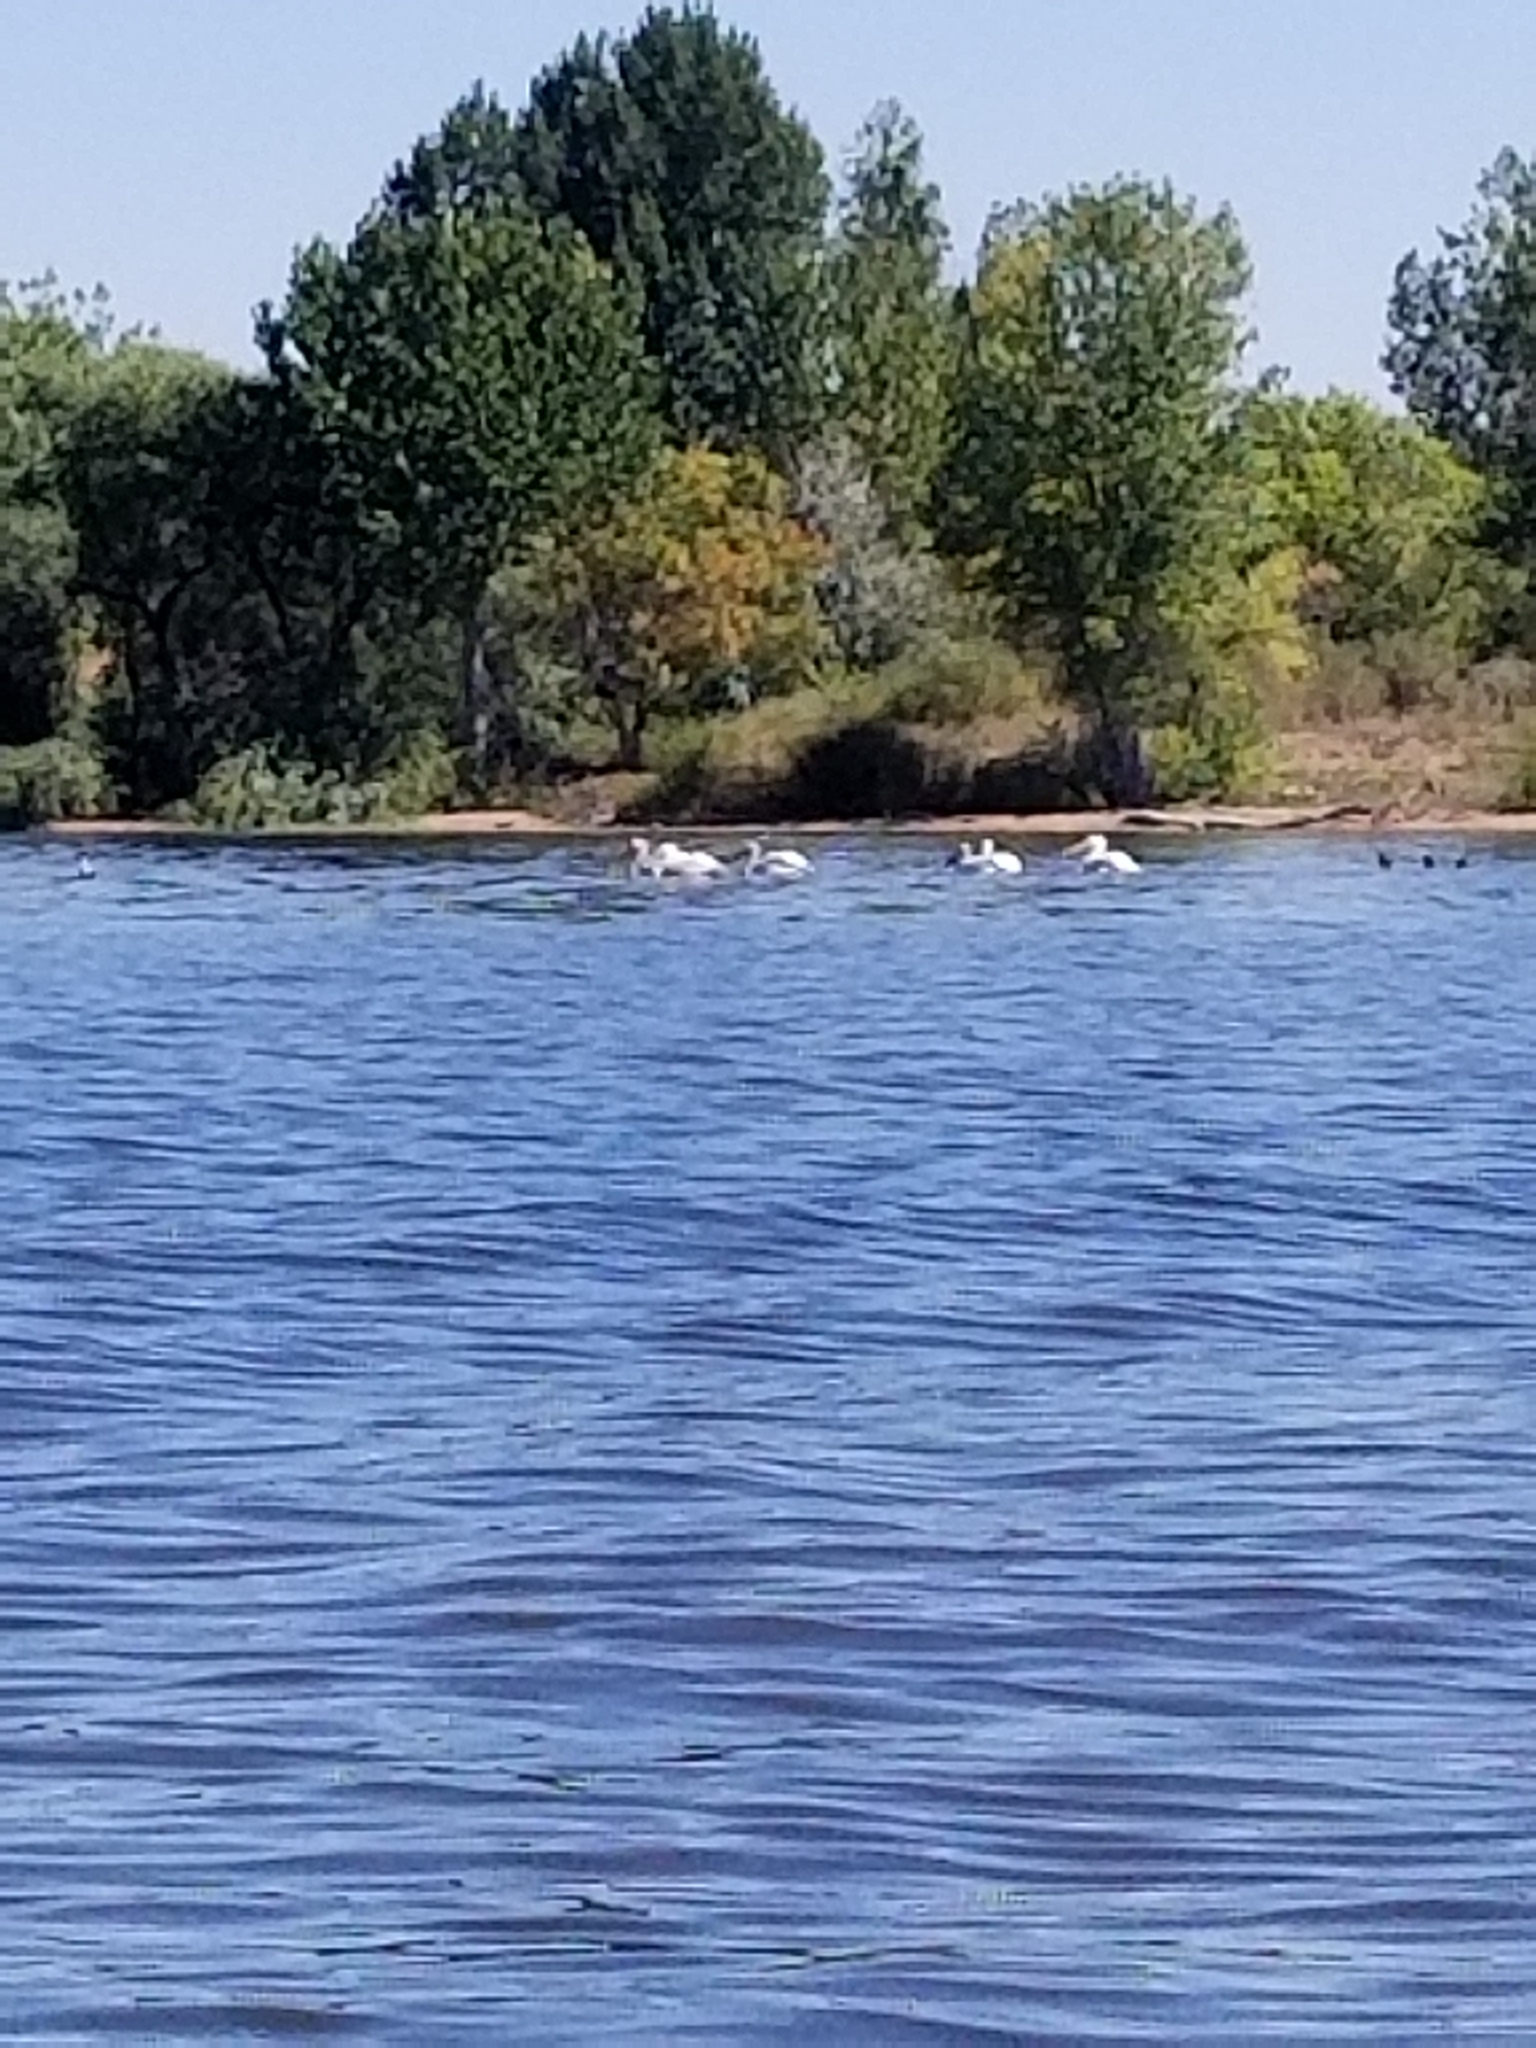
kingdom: Animalia
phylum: Chordata
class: Aves
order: Pelecaniformes
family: Pelecanidae
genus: Pelecanus
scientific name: Pelecanus erythrorhynchos
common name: American white pelican
